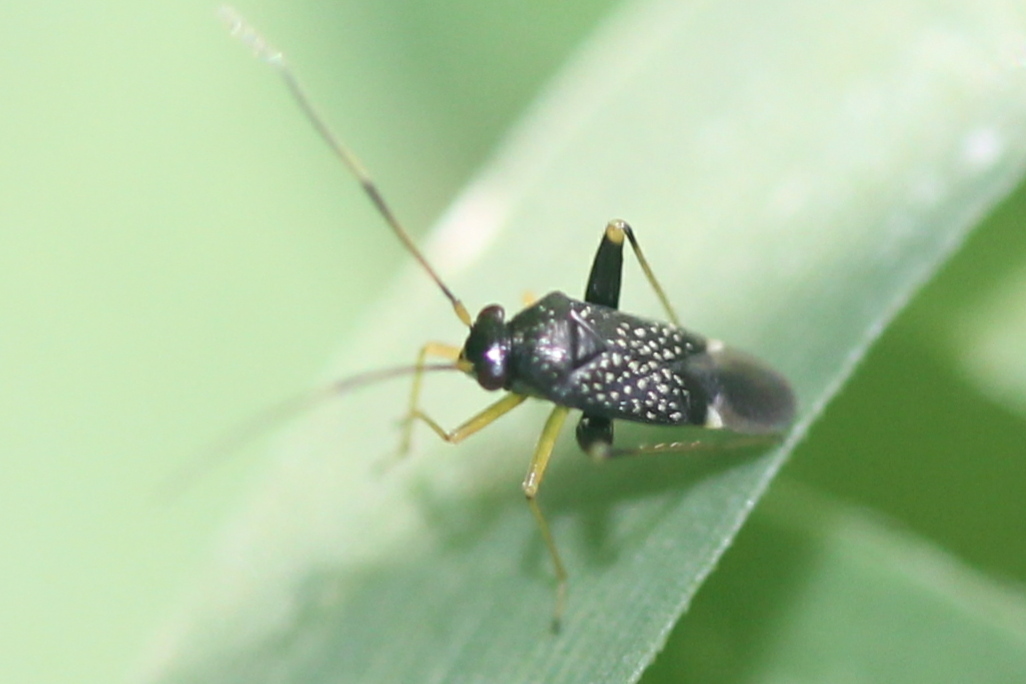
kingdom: Animalia
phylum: Arthropoda
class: Insecta
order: Hemiptera
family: Miridae
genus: Microtechnites
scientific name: Microtechnites bractatus
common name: Garden fleahopper
